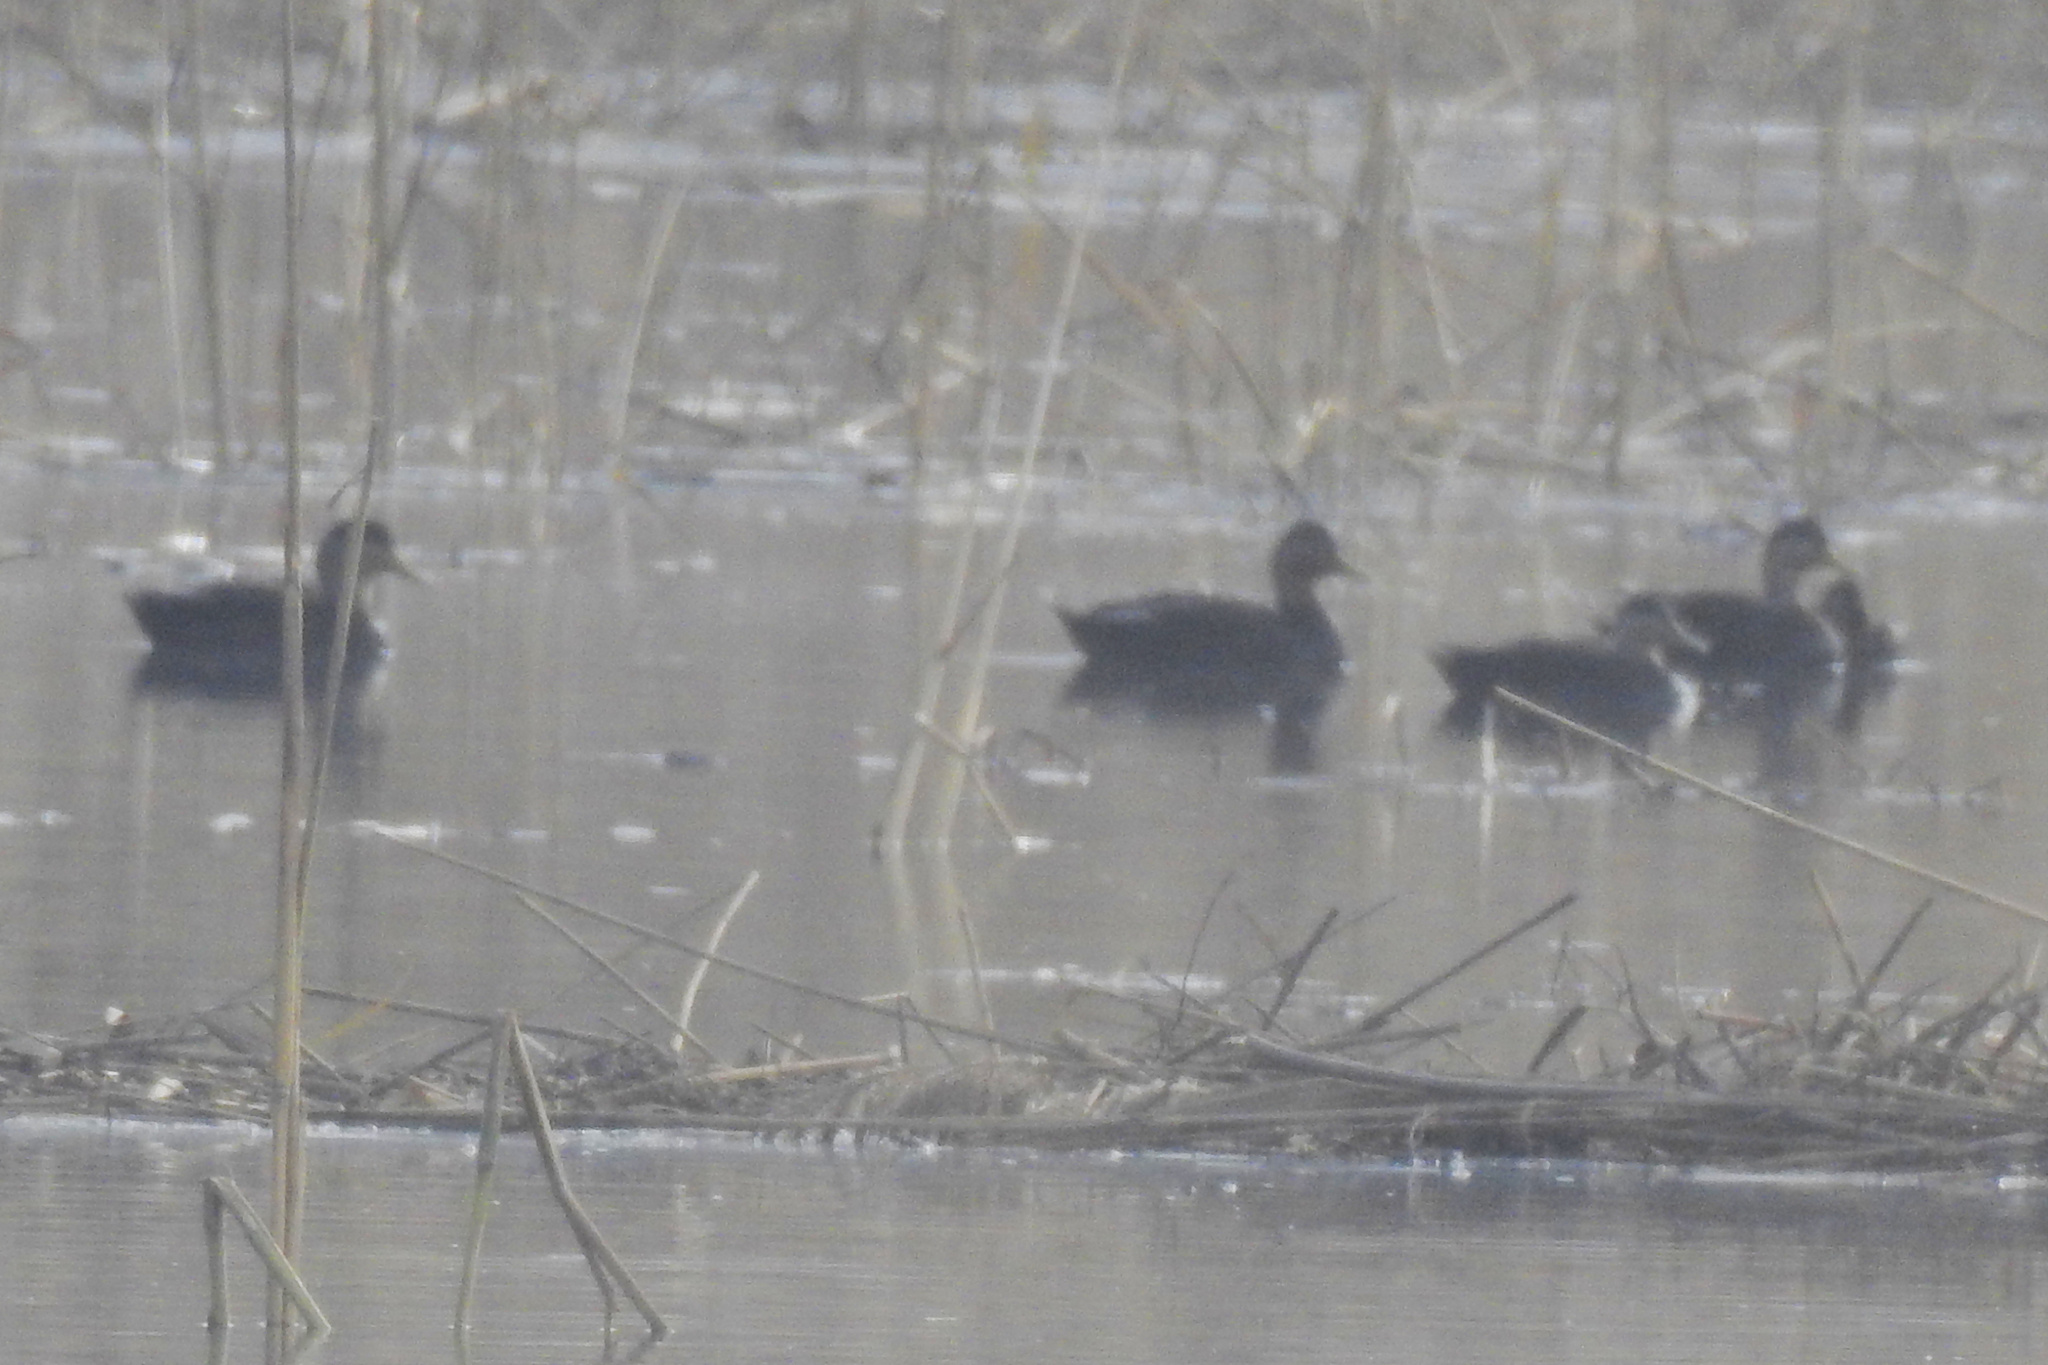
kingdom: Animalia
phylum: Chordata
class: Aves
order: Anseriformes
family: Anatidae
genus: Anas
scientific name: Anas rubripes
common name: American black duck
